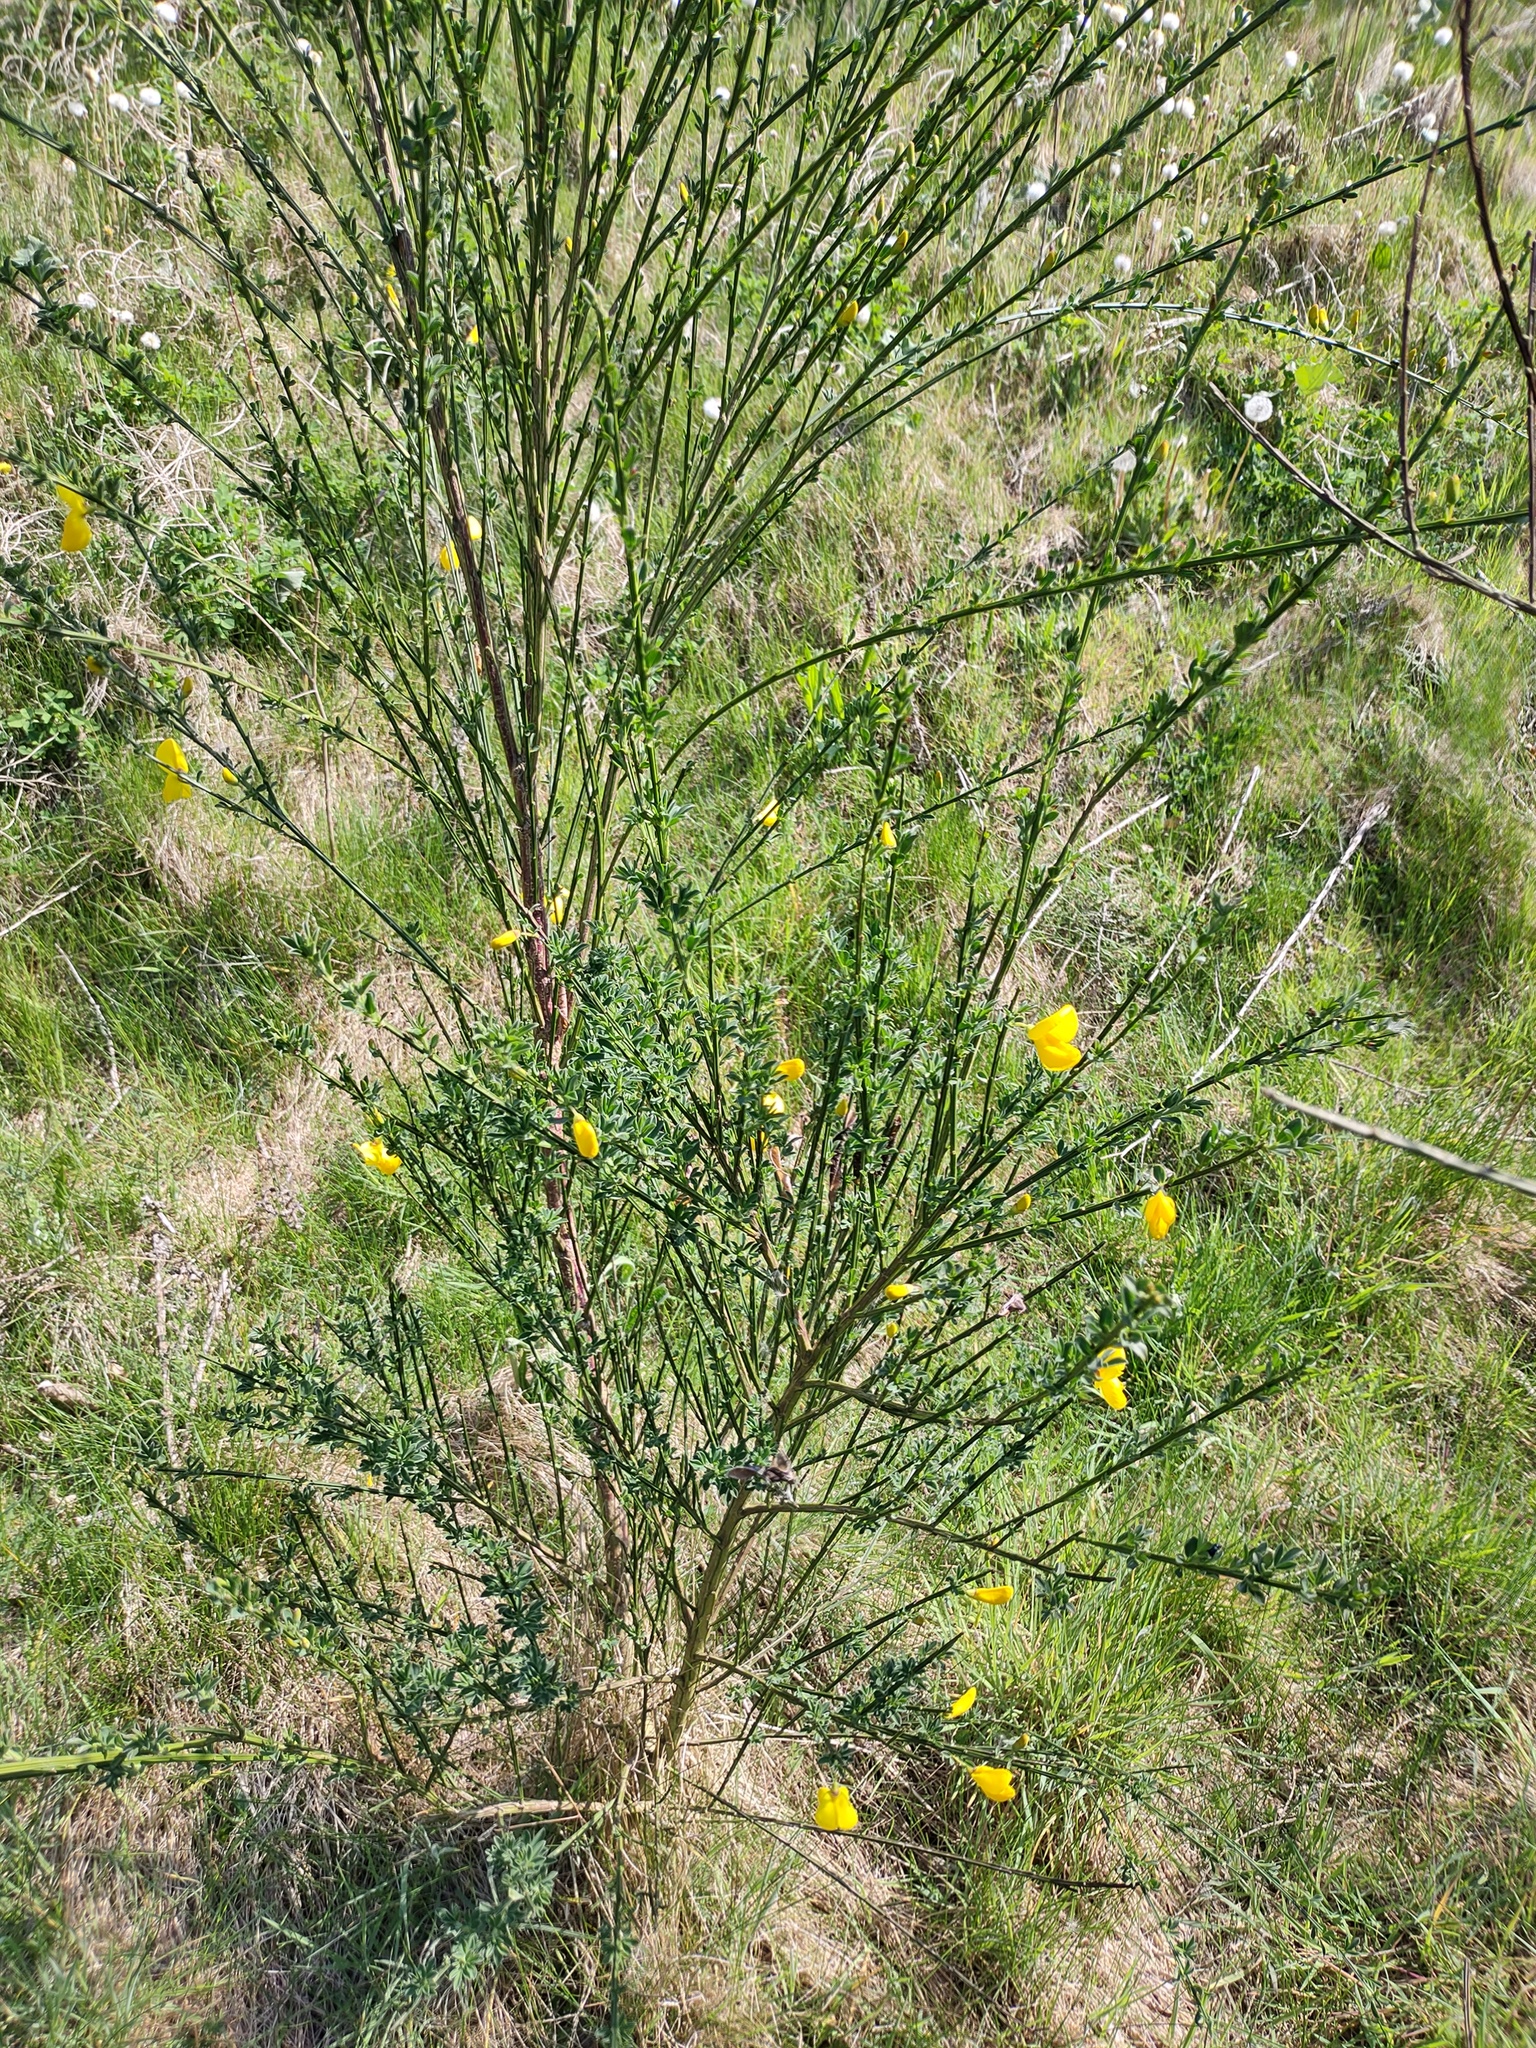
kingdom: Plantae
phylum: Tracheophyta
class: Magnoliopsida
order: Fabales
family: Fabaceae
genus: Cytisus
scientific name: Cytisus scoparius
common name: Scotch broom
